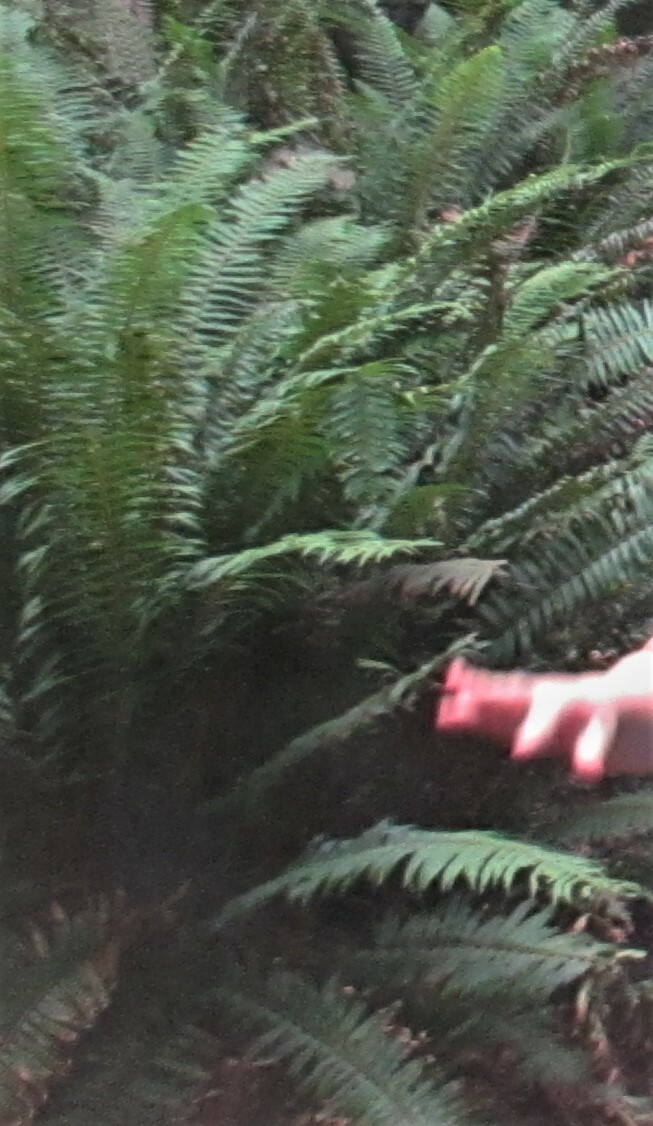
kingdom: Plantae
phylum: Tracheophyta
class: Polypodiopsida
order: Polypodiales
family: Dryopteridaceae
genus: Polystichum
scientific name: Polystichum munitum
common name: Western sword-fern
